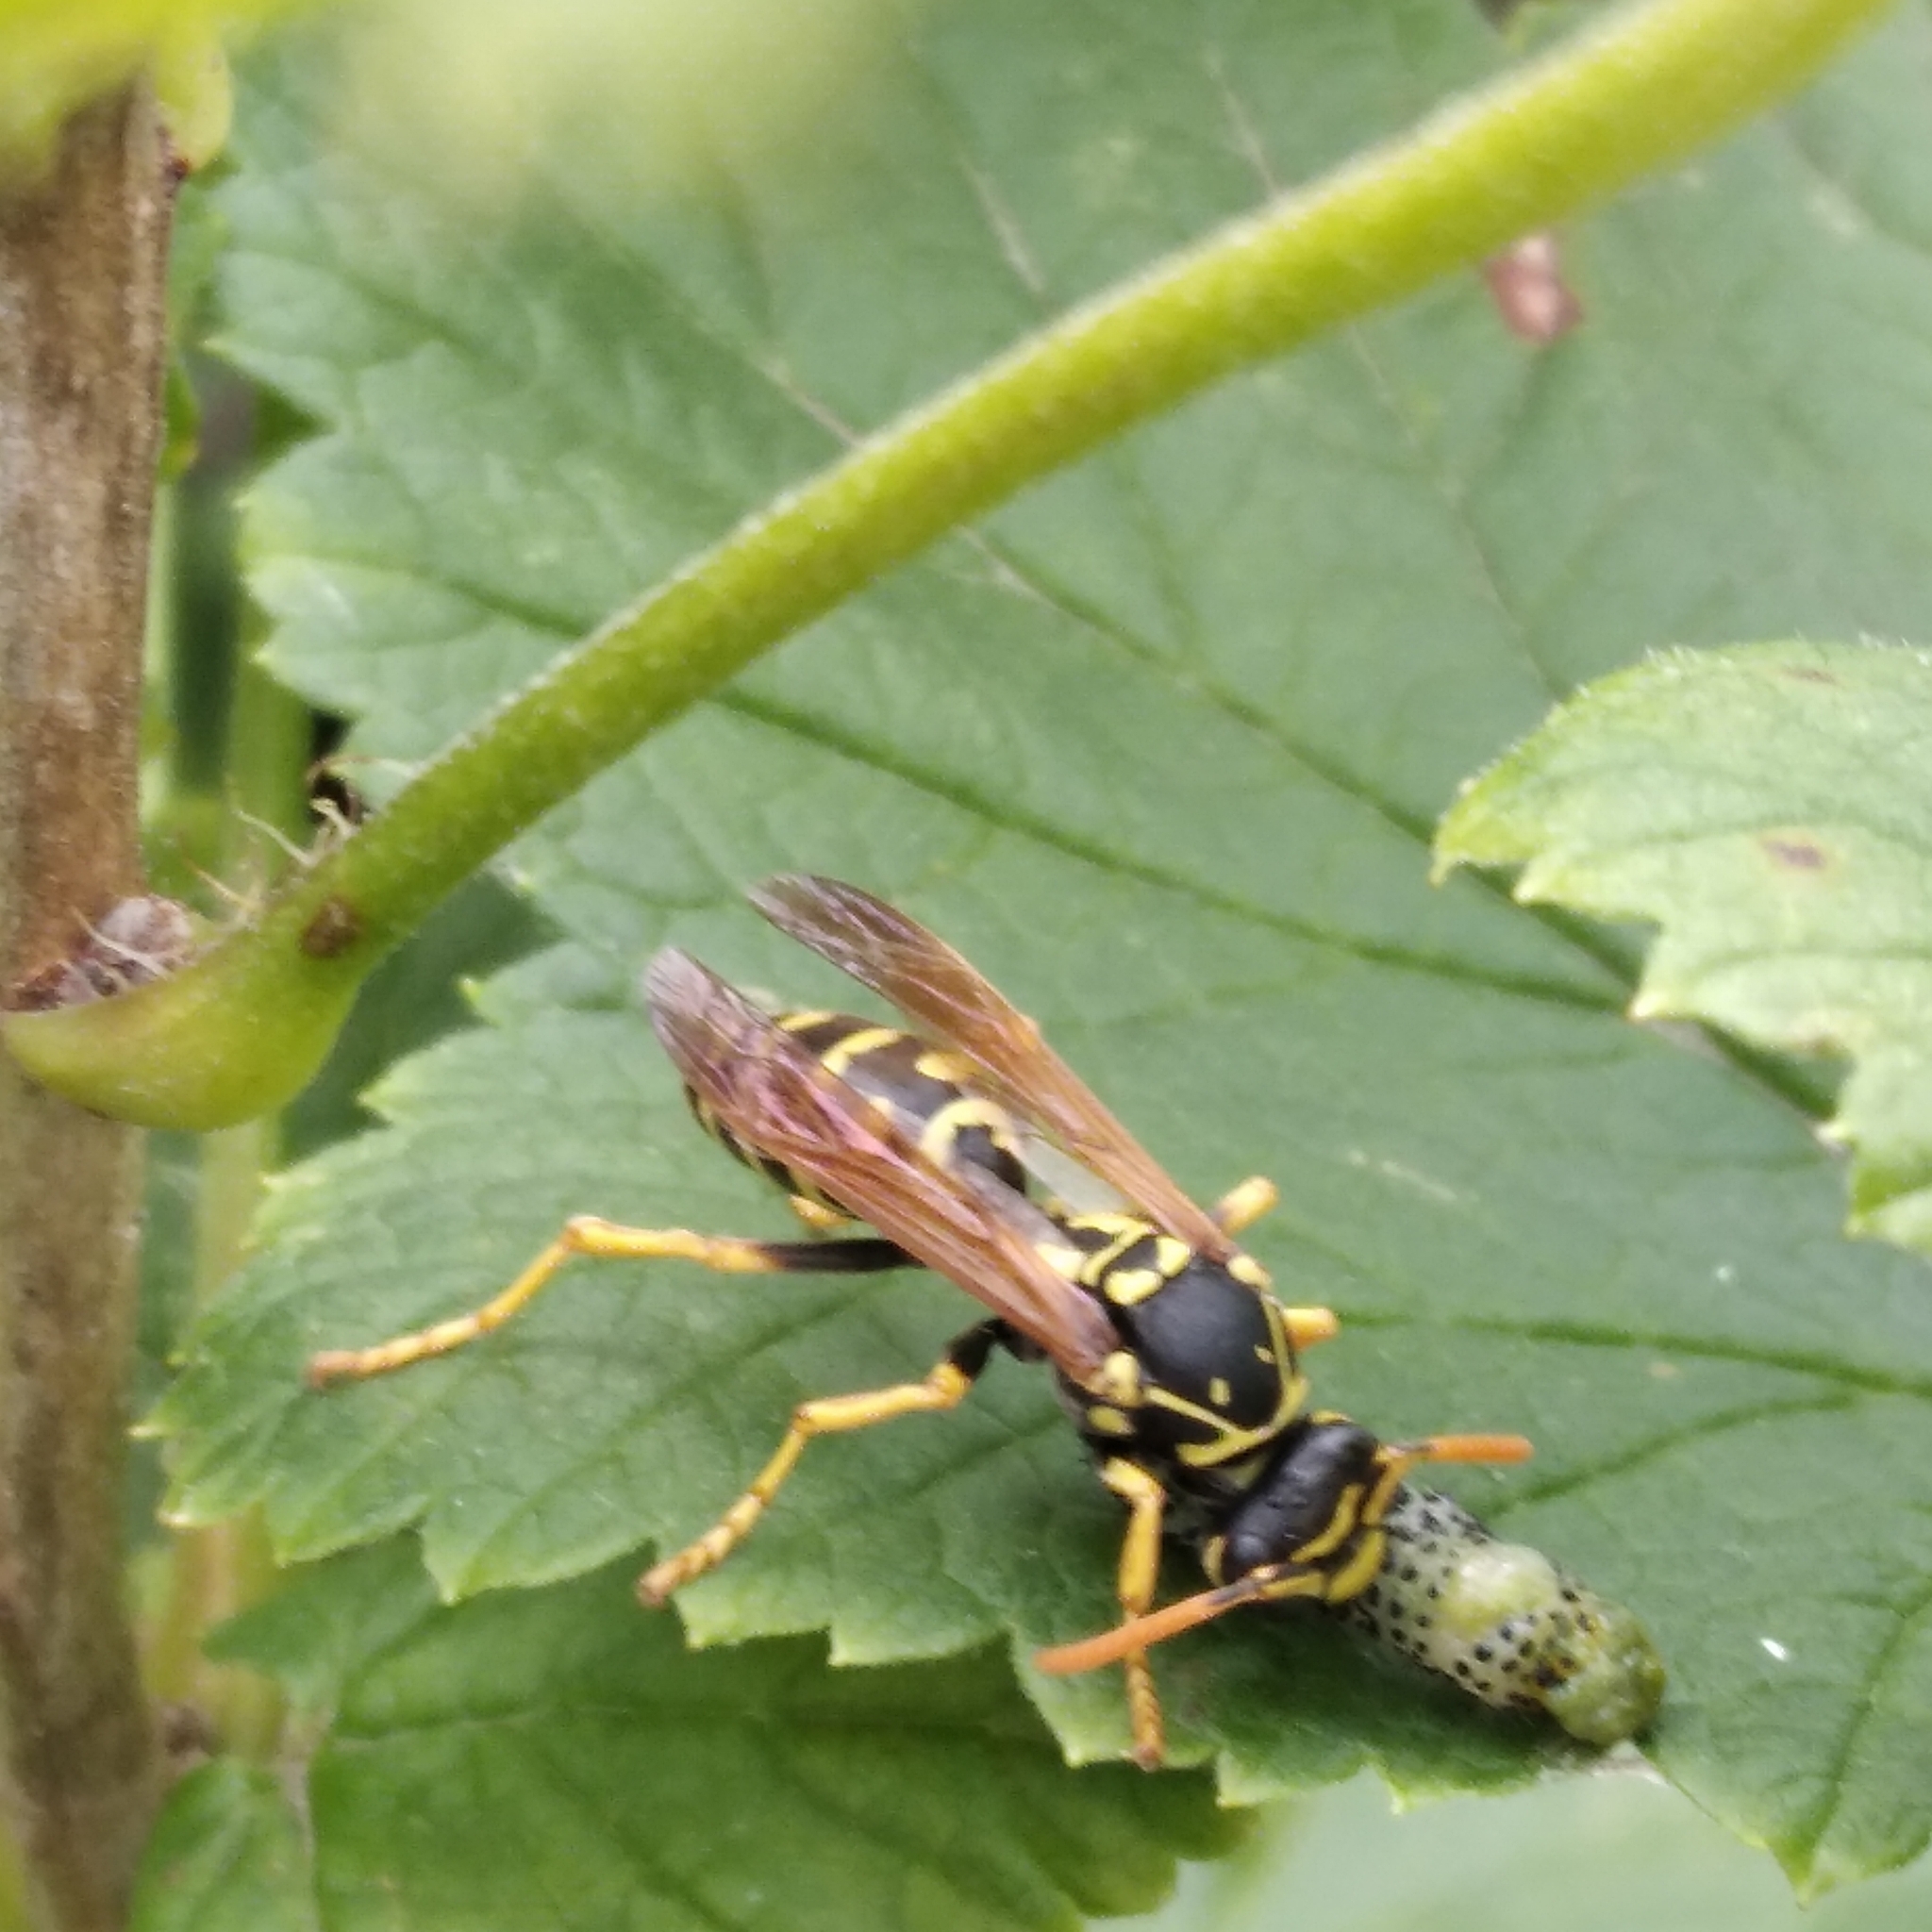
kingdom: Animalia
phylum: Arthropoda
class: Insecta
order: Hymenoptera
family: Eumenidae
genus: Polistes
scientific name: Polistes dominula
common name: Paper wasp
